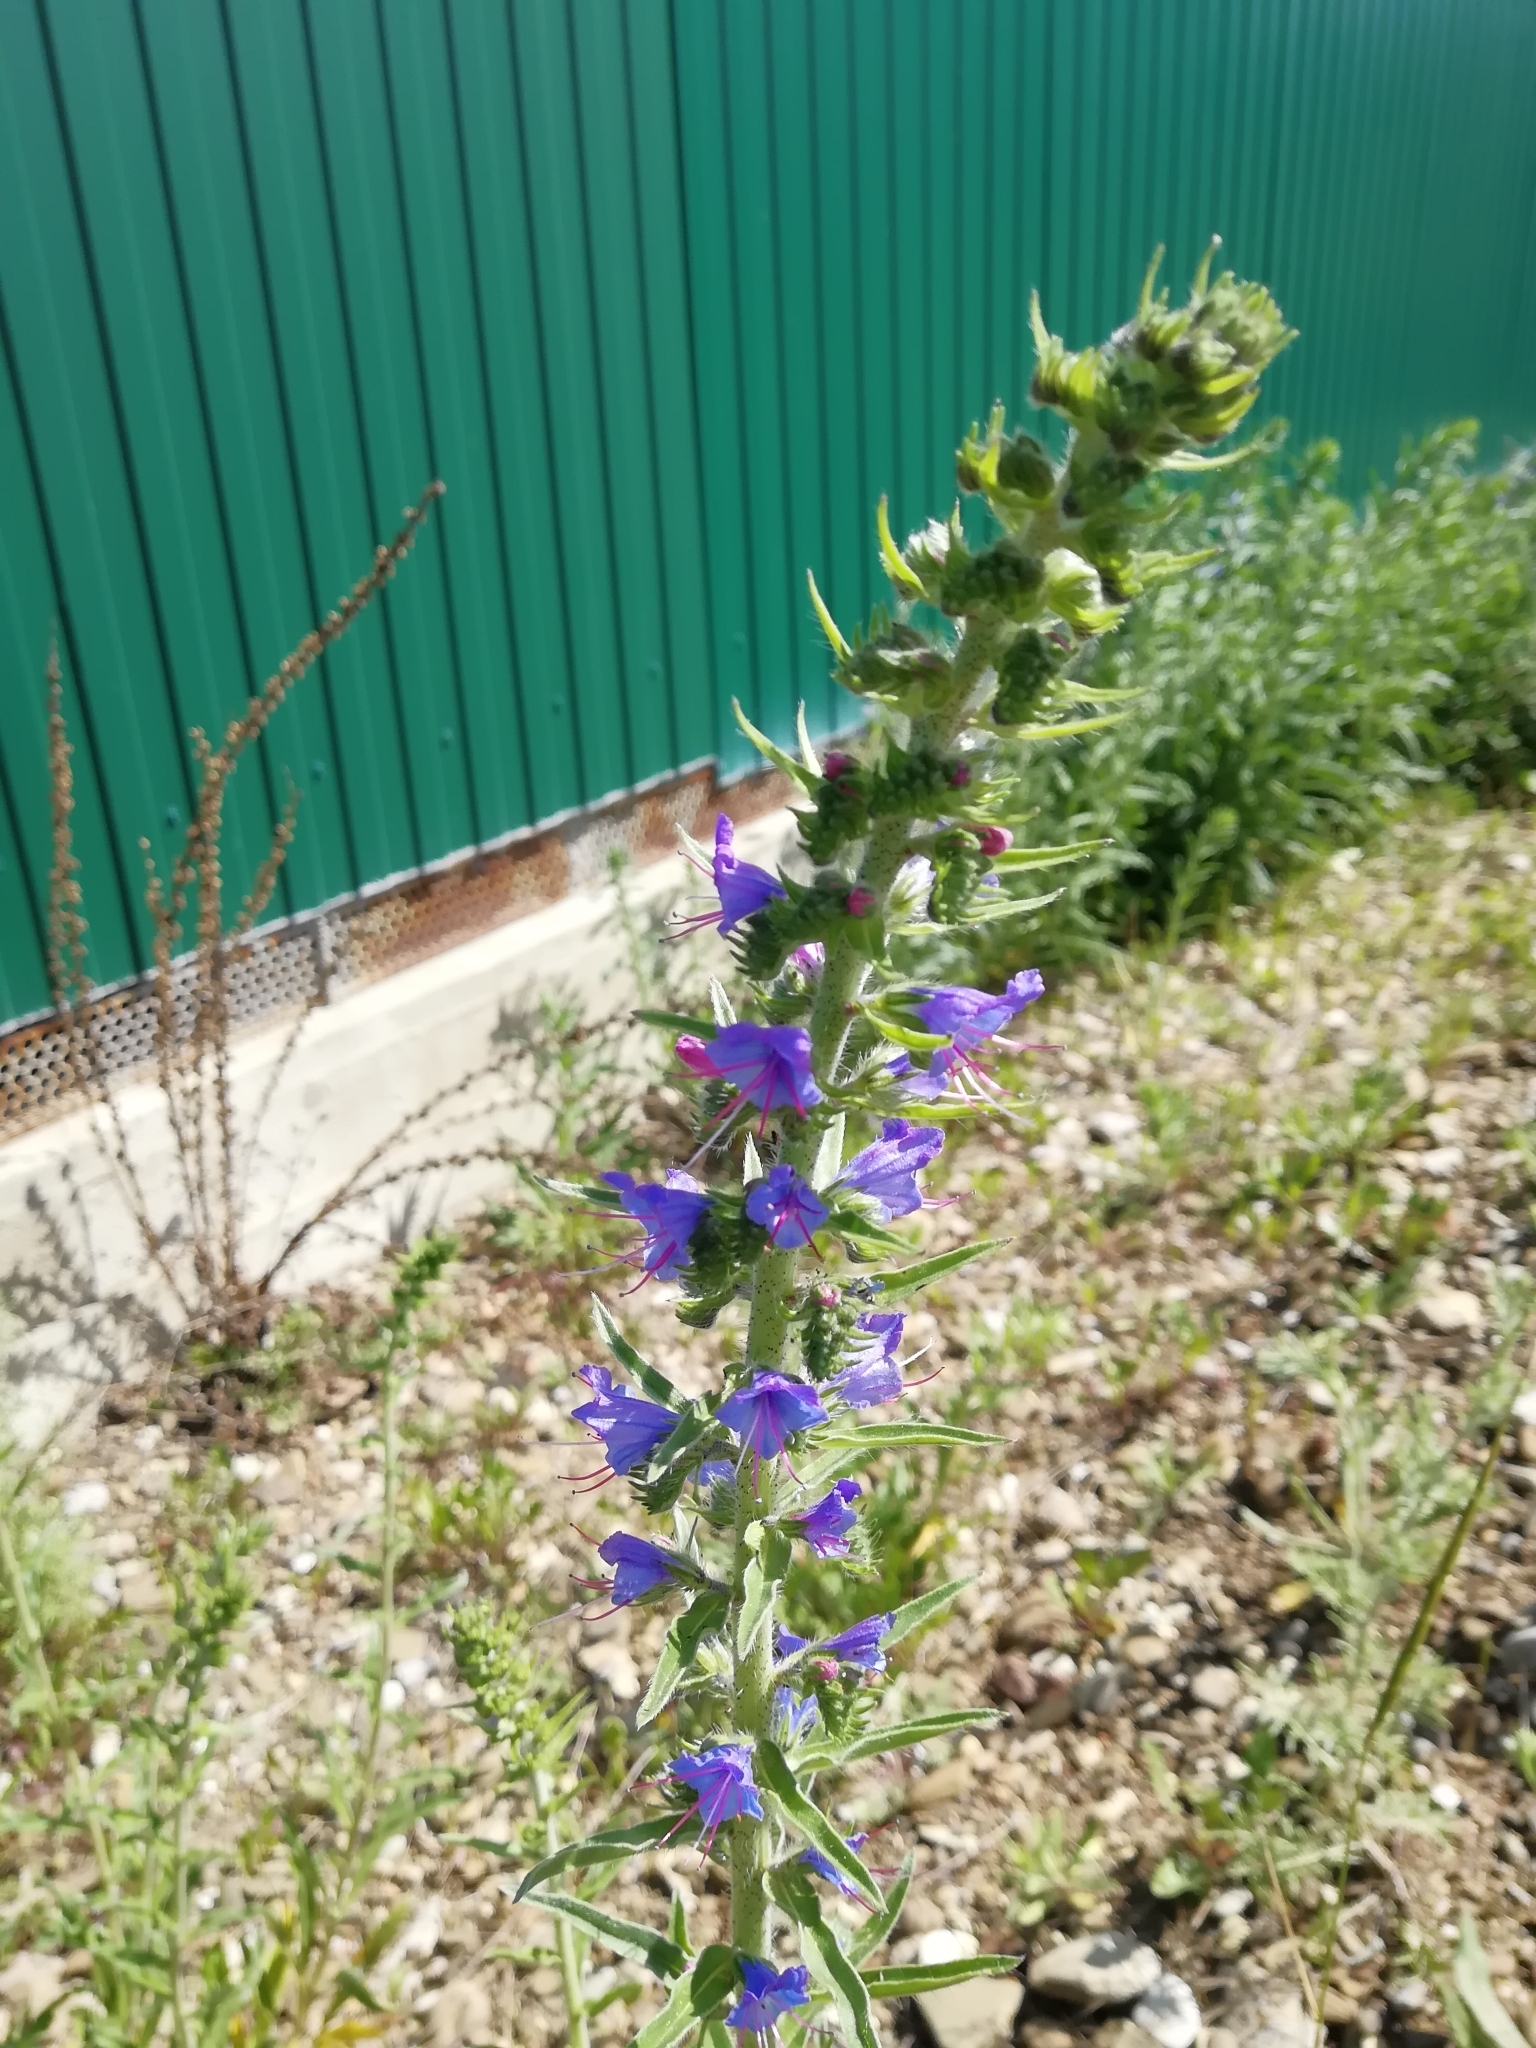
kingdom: Plantae
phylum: Tracheophyta
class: Magnoliopsida
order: Boraginales
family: Boraginaceae
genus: Echium
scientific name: Echium vulgare
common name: Common viper's bugloss
